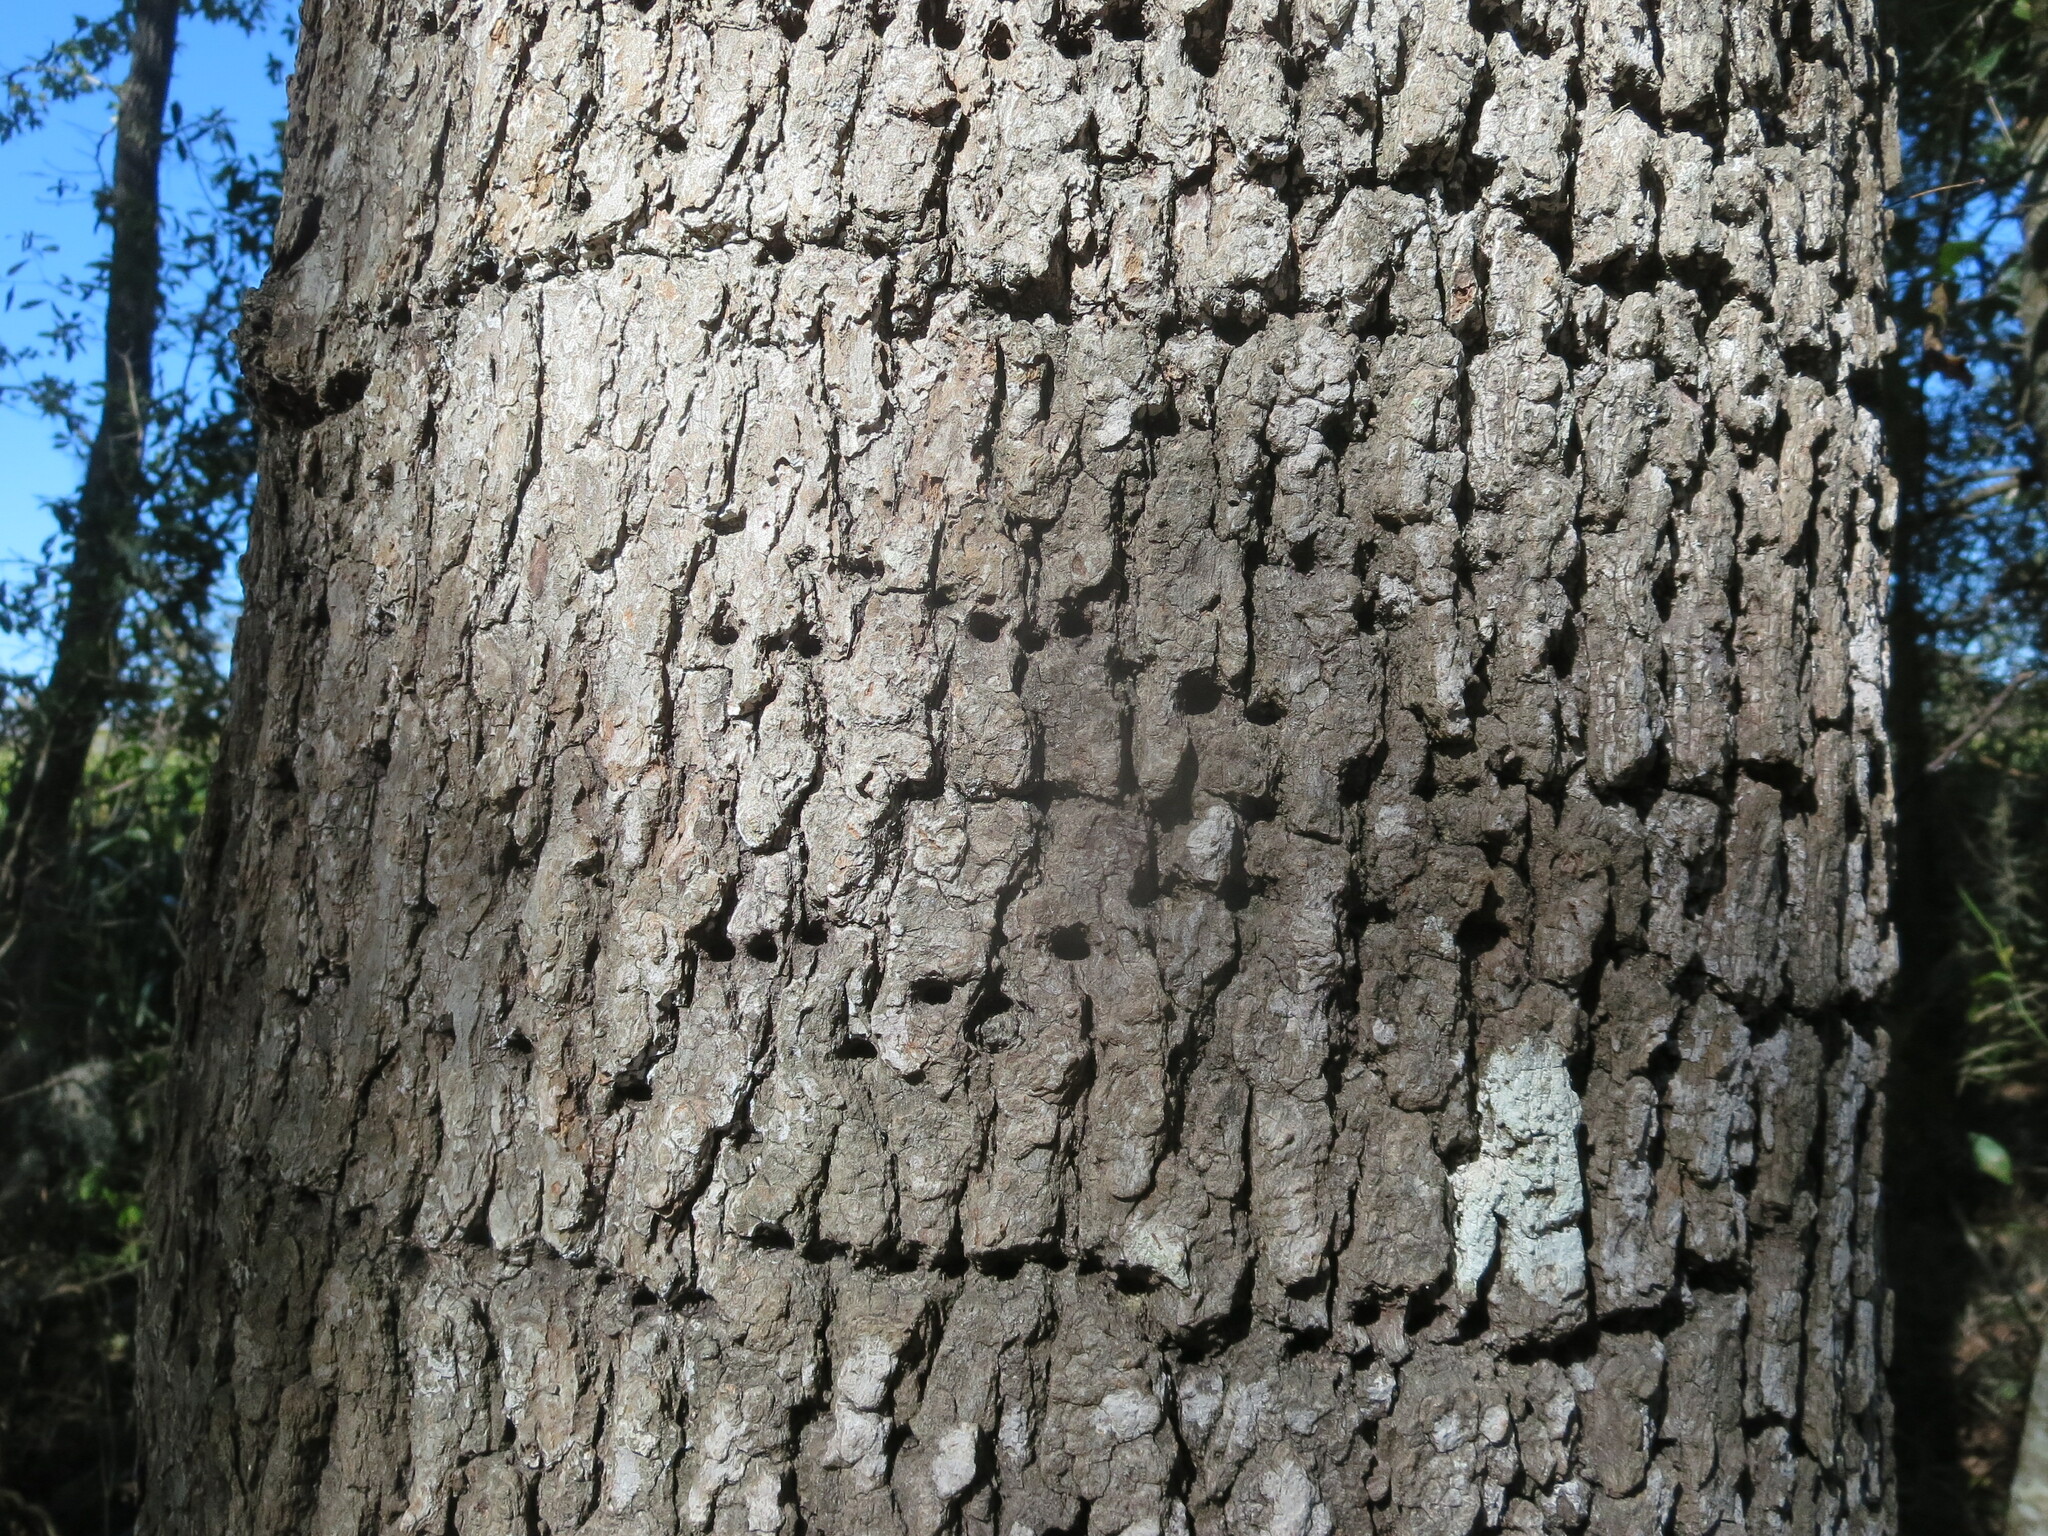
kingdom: Animalia
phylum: Chordata
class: Aves
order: Piciformes
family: Picidae
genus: Sphyrapicus
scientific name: Sphyrapicus varius
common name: Yellow-bellied sapsucker
